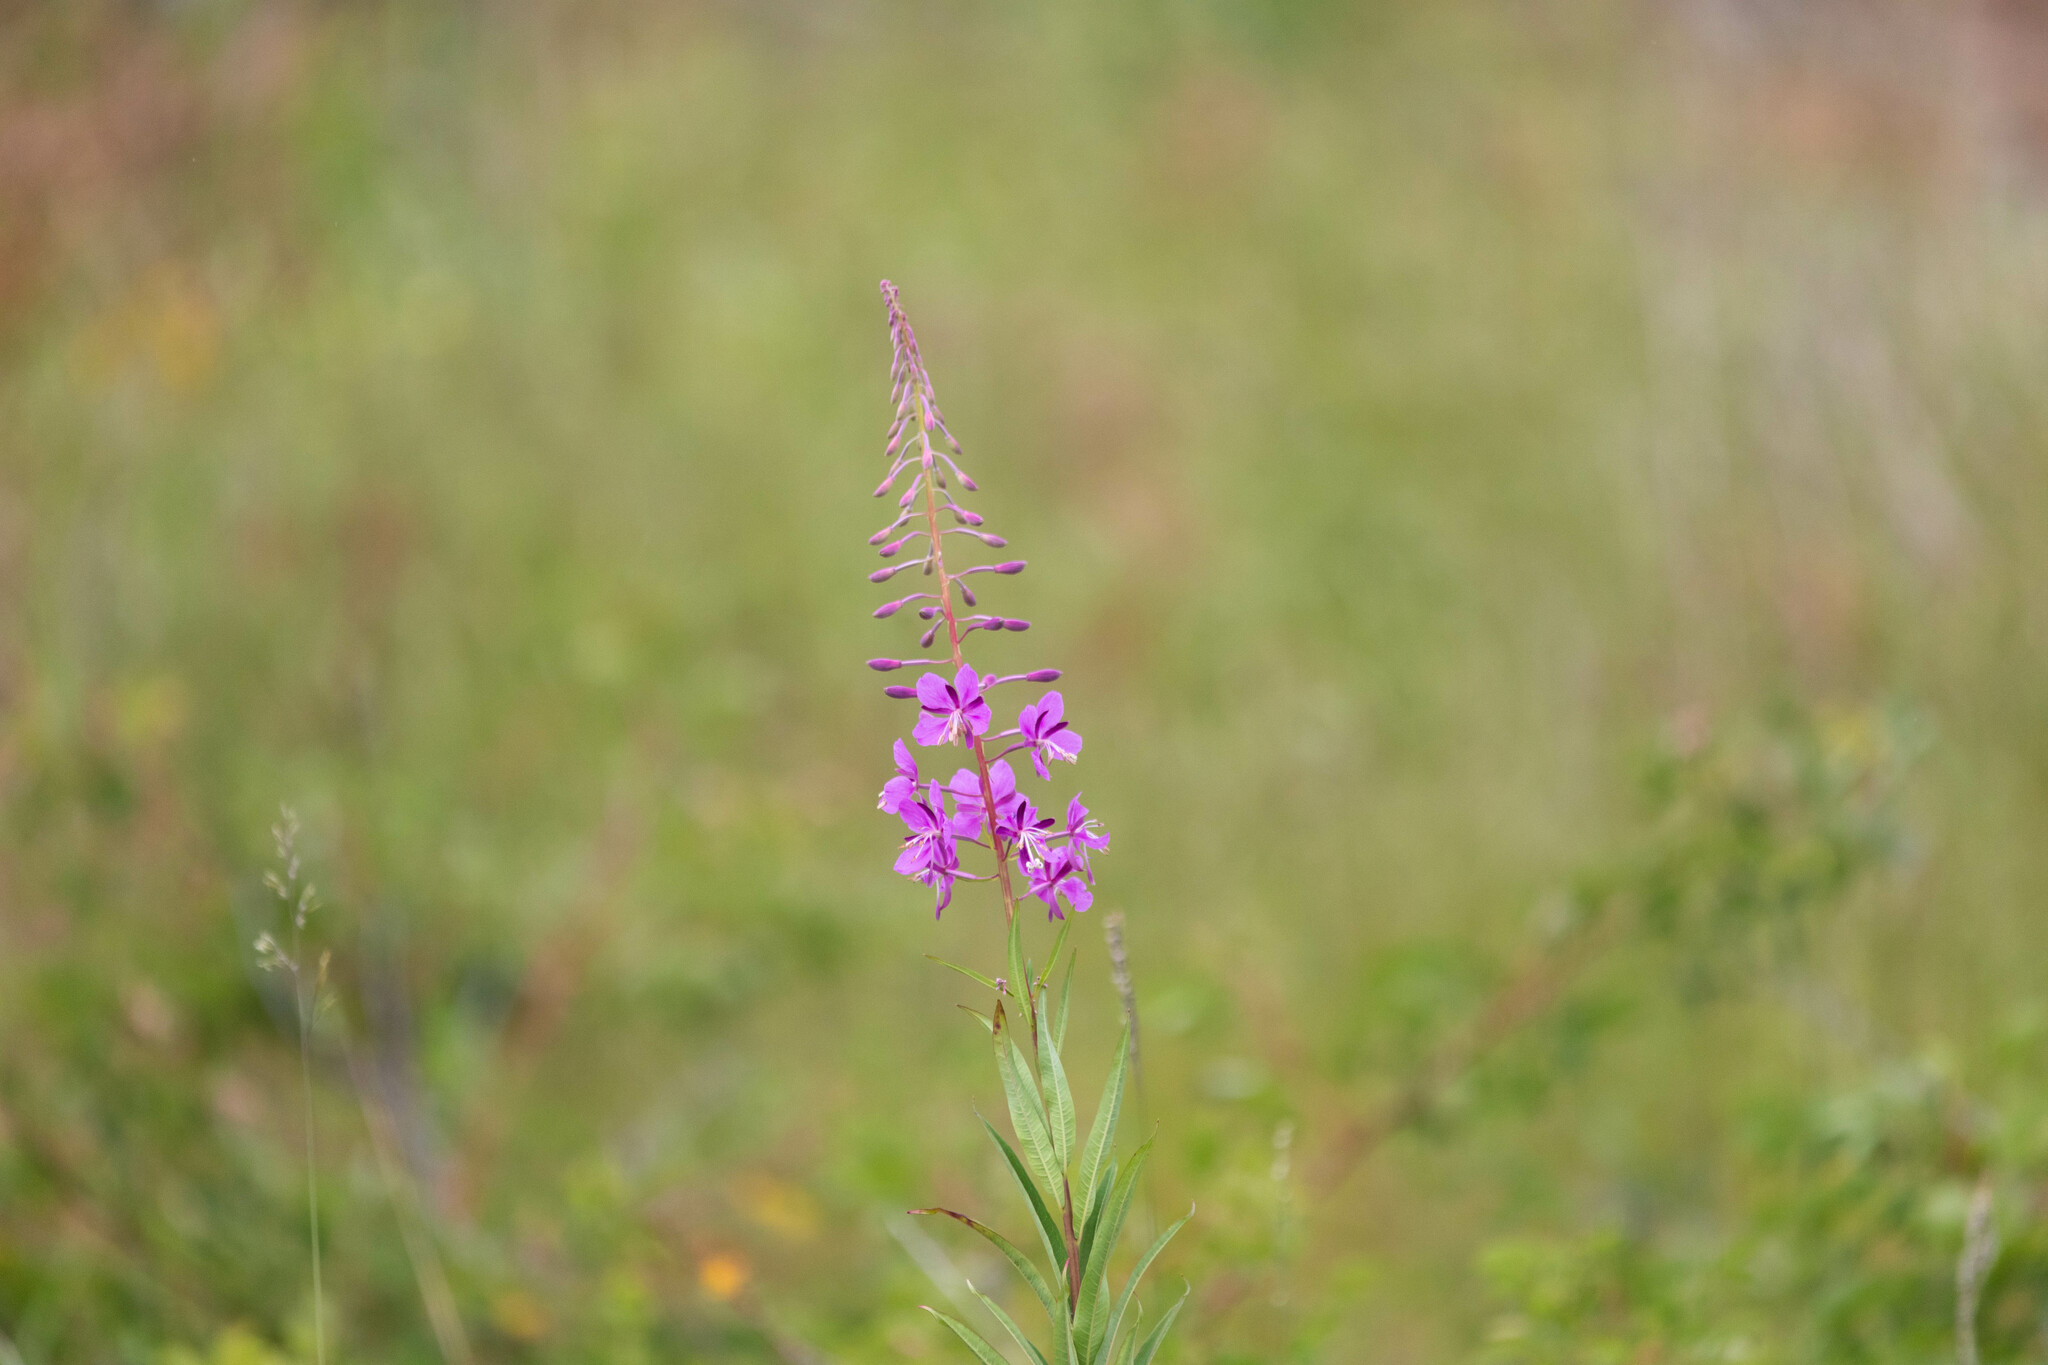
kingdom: Plantae
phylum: Tracheophyta
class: Magnoliopsida
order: Myrtales
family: Onagraceae
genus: Chamaenerion
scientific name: Chamaenerion angustifolium
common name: Fireweed
